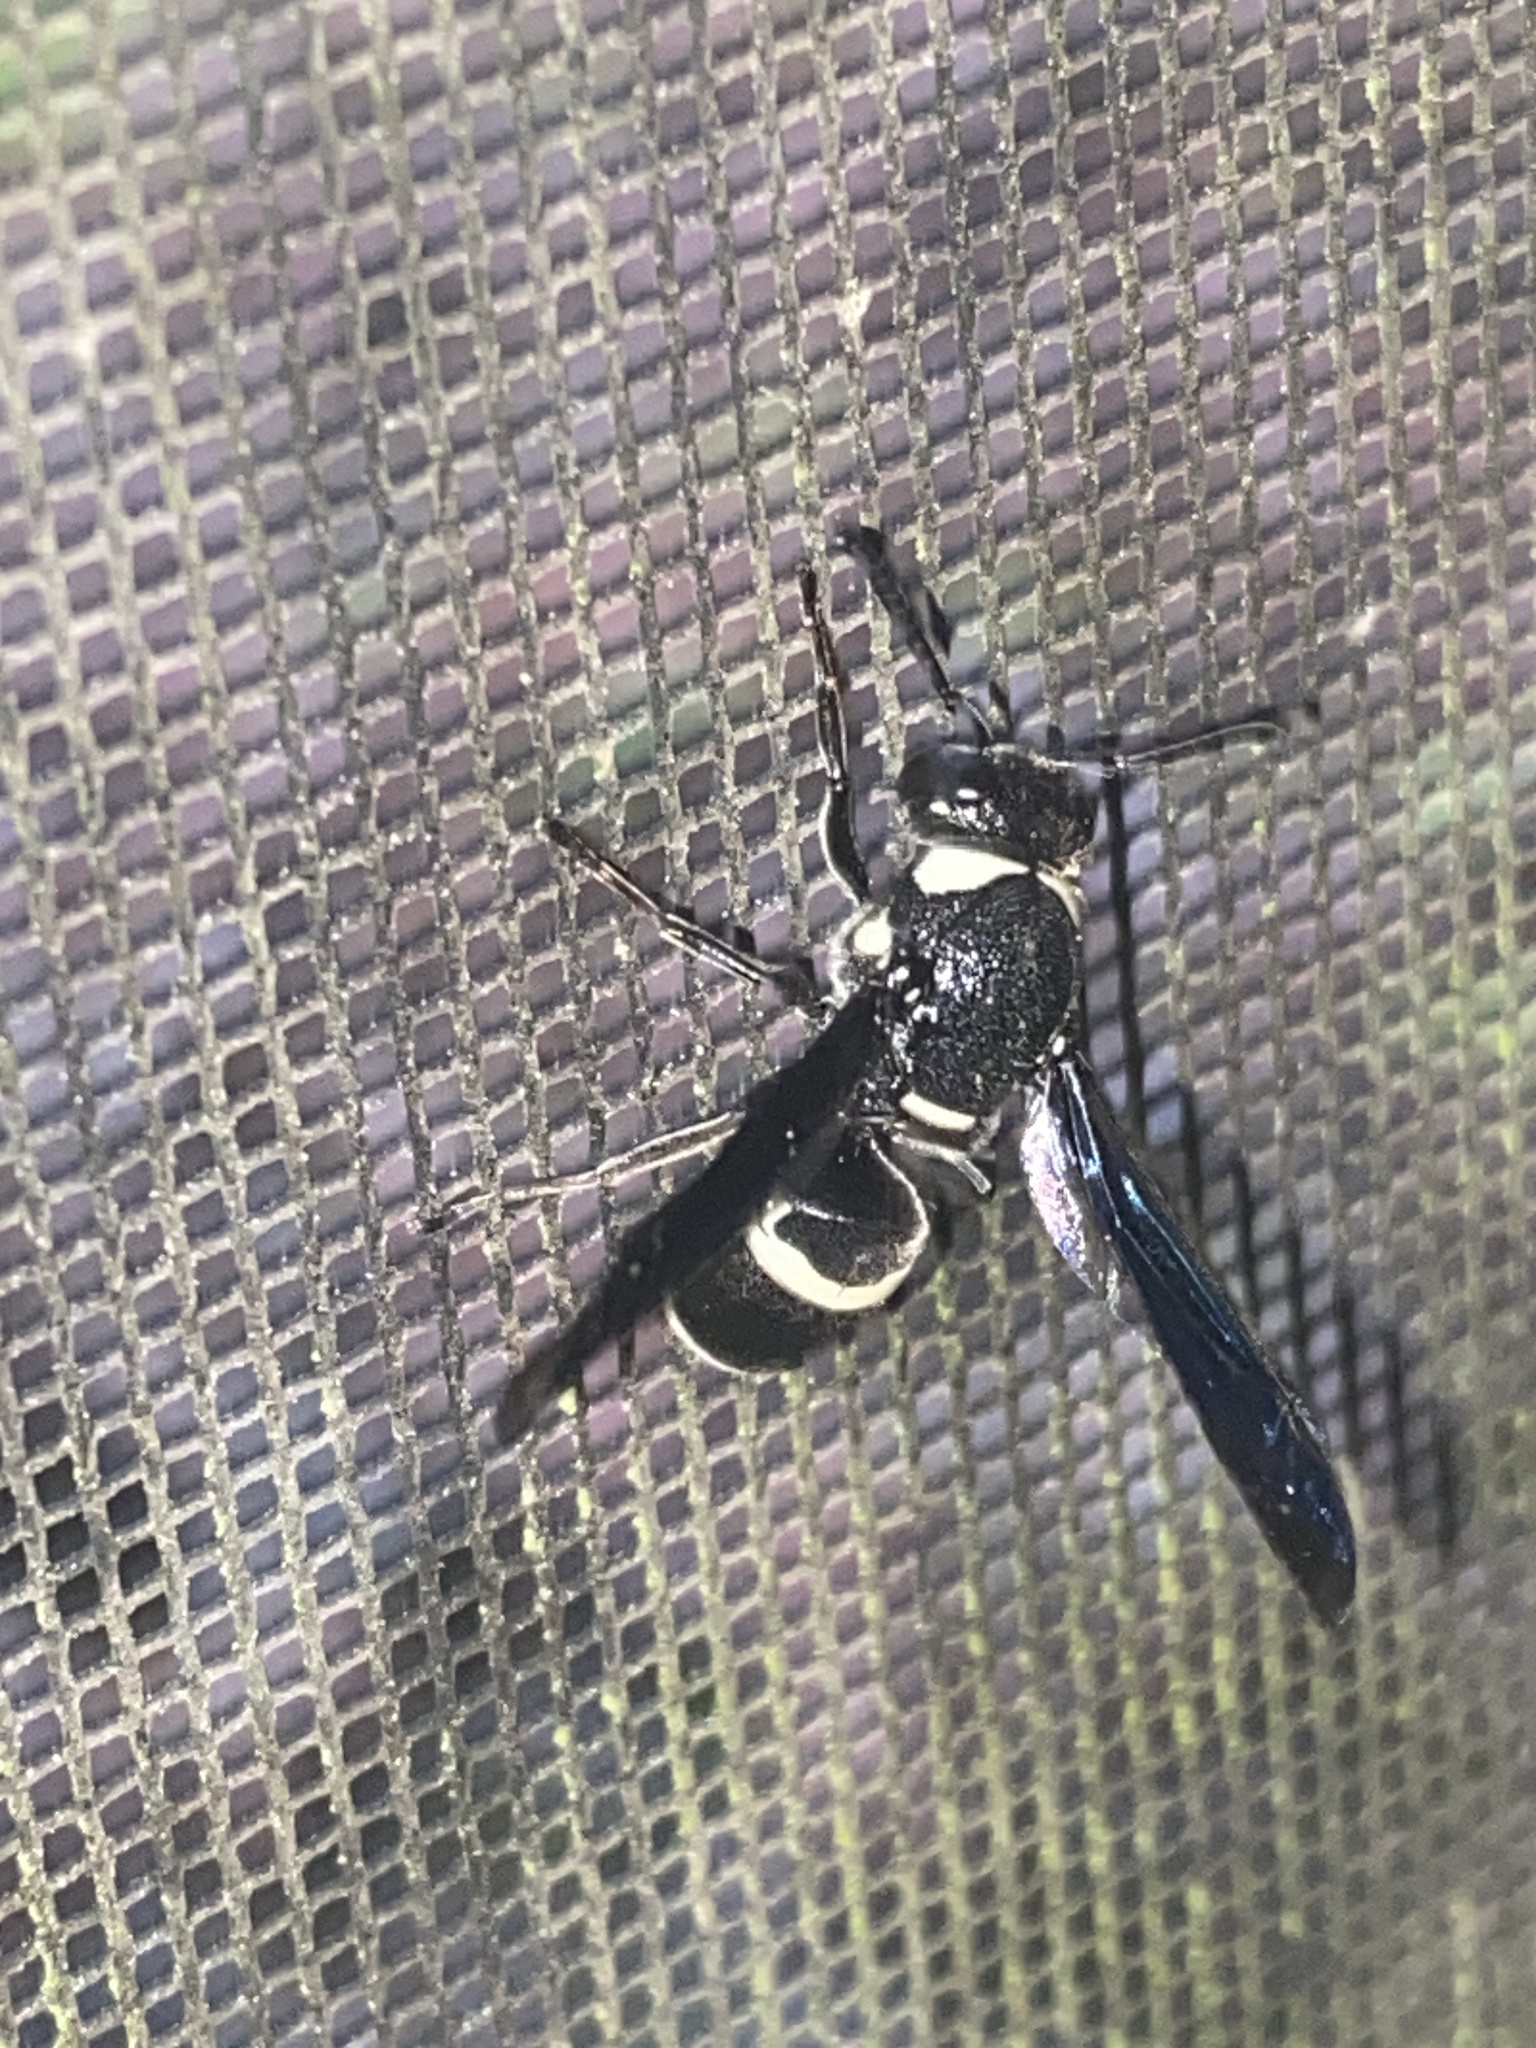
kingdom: Animalia
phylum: Arthropoda
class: Insecta
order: Hymenoptera
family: Eumenidae
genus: Monobia
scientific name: Monobia quadridens
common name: Four-toothed mason wasp
